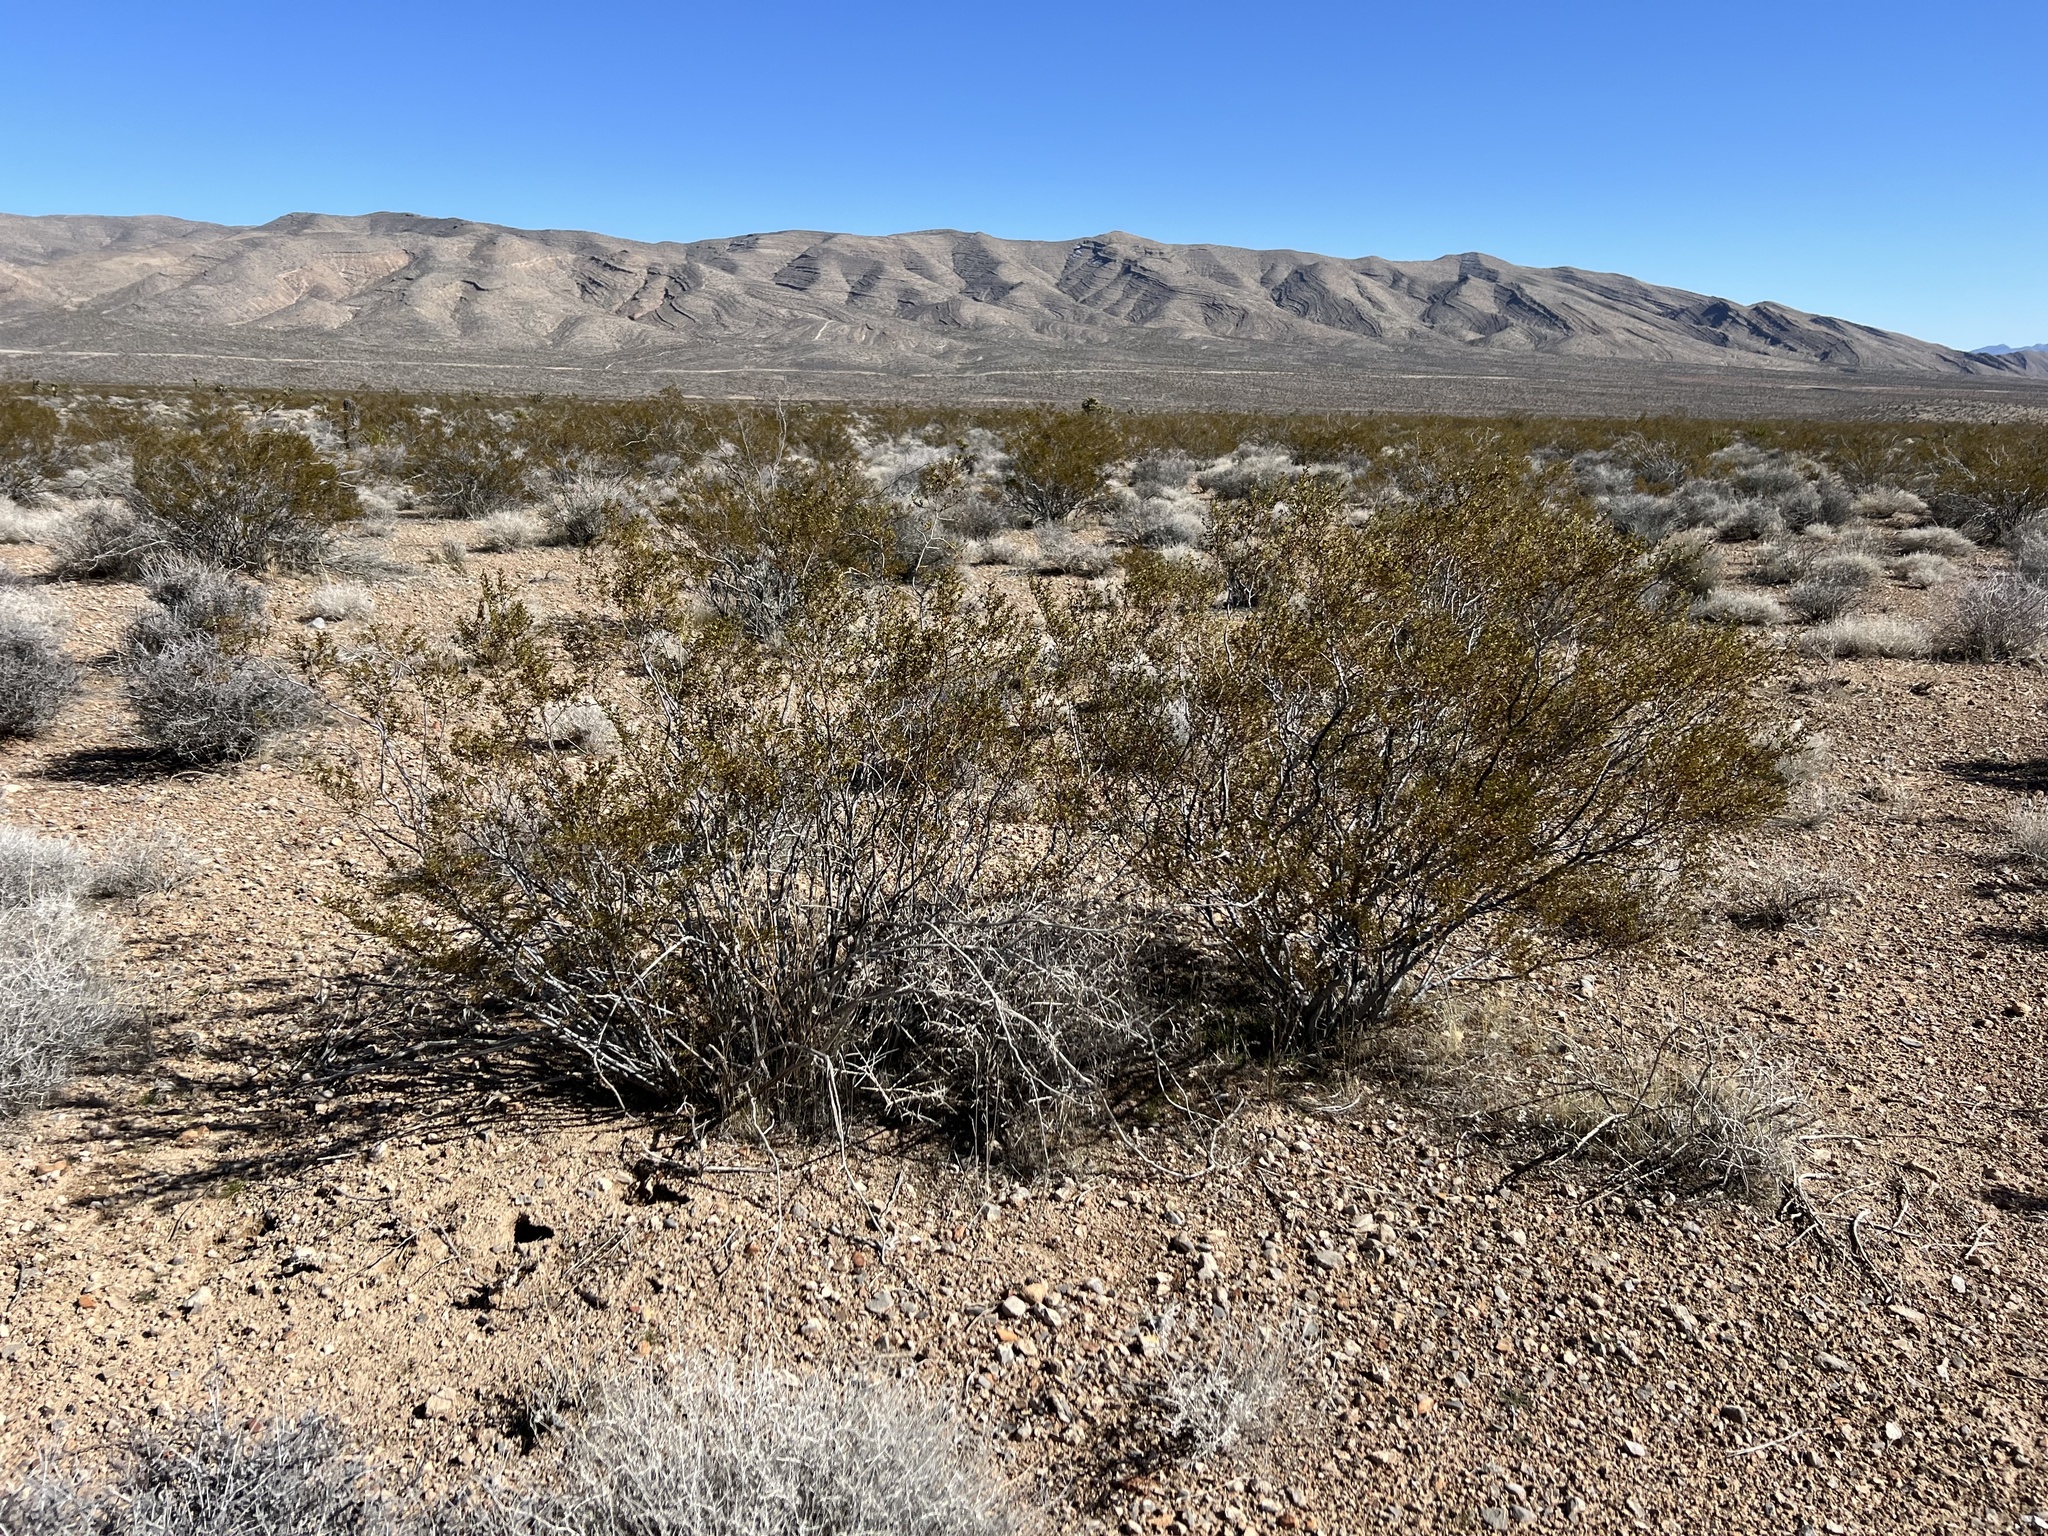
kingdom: Plantae
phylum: Tracheophyta
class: Magnoliopsida
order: Zygophyllales
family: Zygophyllaceae
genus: Larrea
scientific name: Larrea tridentata
